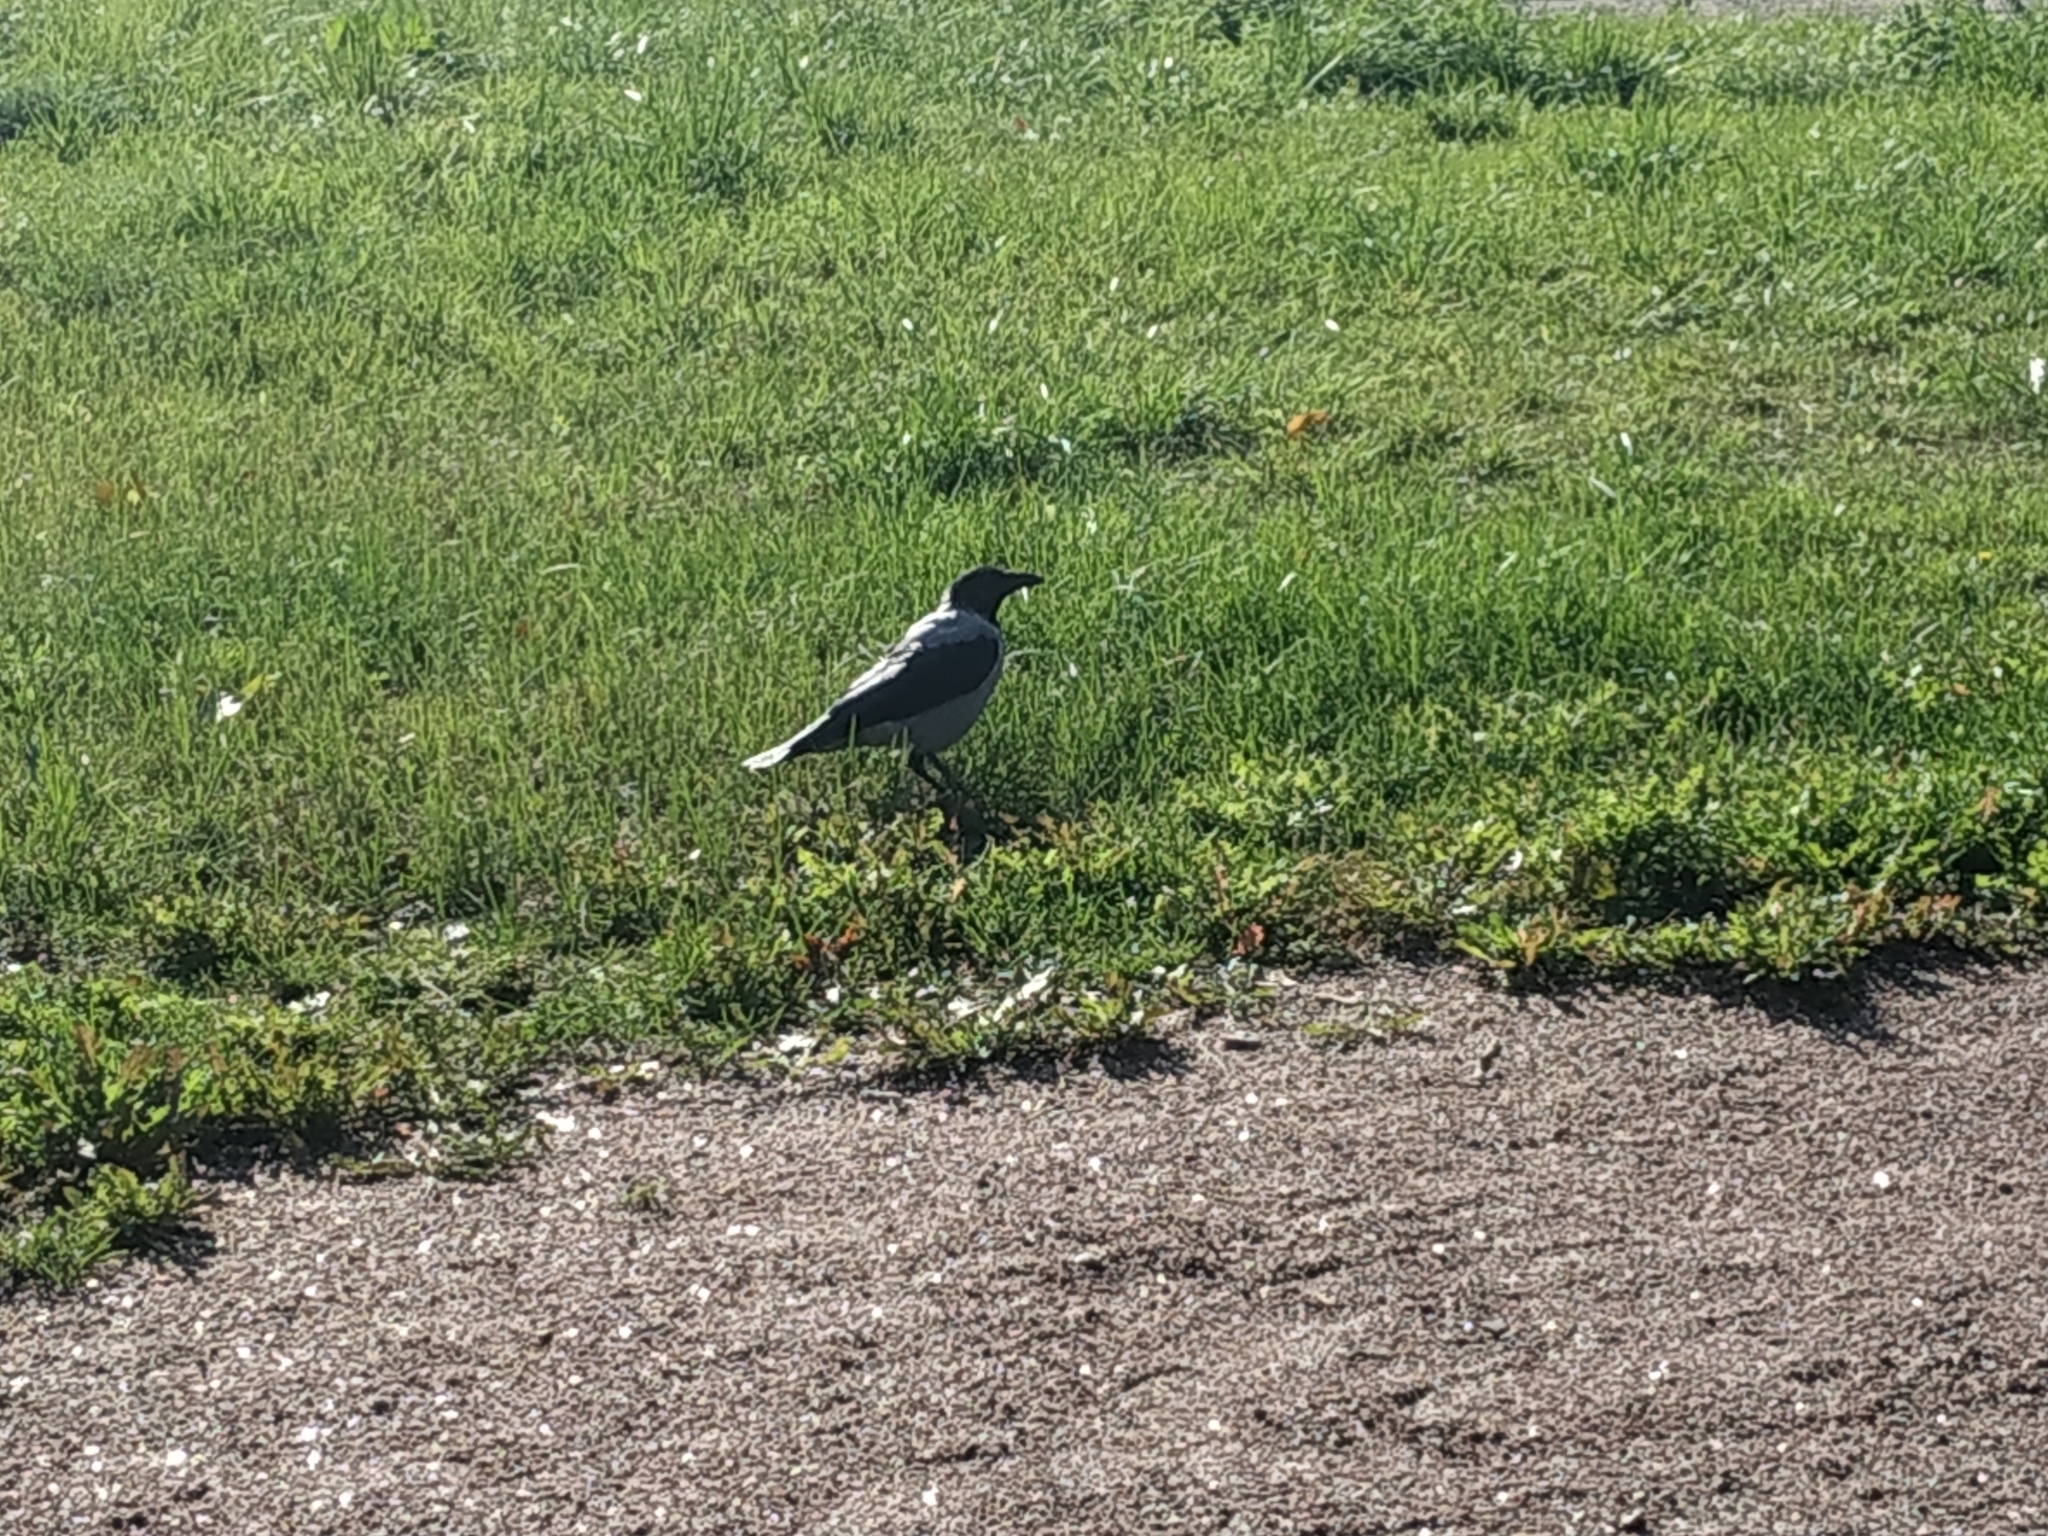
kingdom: Animalia
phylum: Chordata
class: Aves
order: Passeriformes
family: Corvidae
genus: Corvus
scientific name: Corvus cornix
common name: Hooded crow
